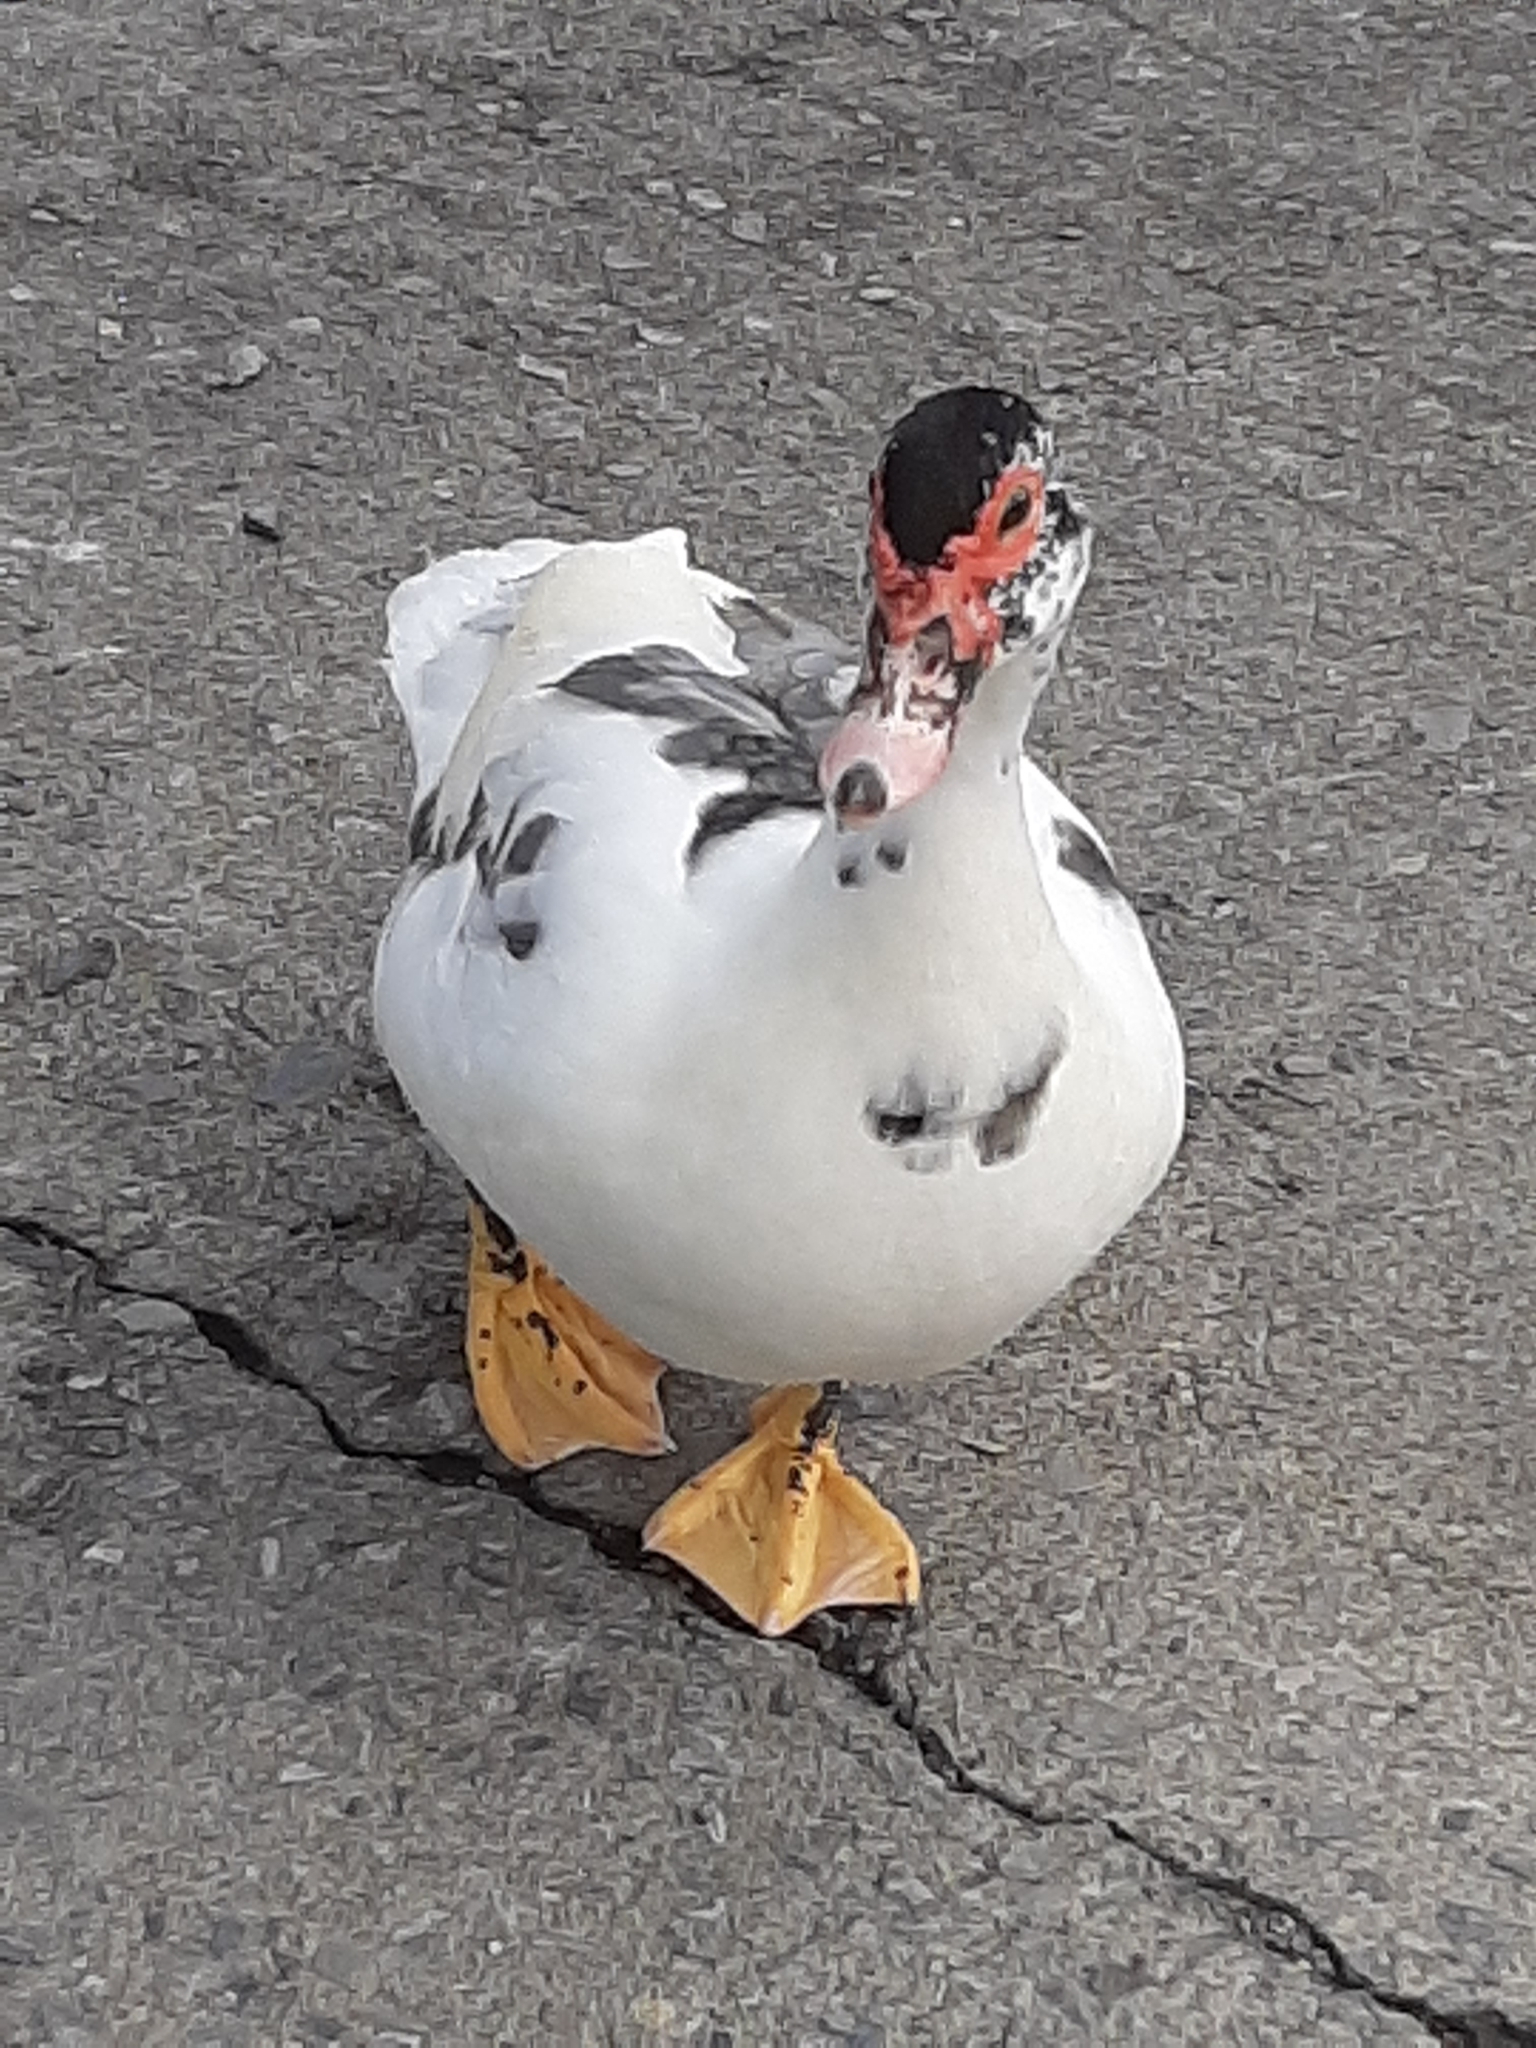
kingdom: Animalia
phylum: Chordata
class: Aves
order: Anseriformes
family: Anatidae
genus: Cairina
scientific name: Cairina moschata
